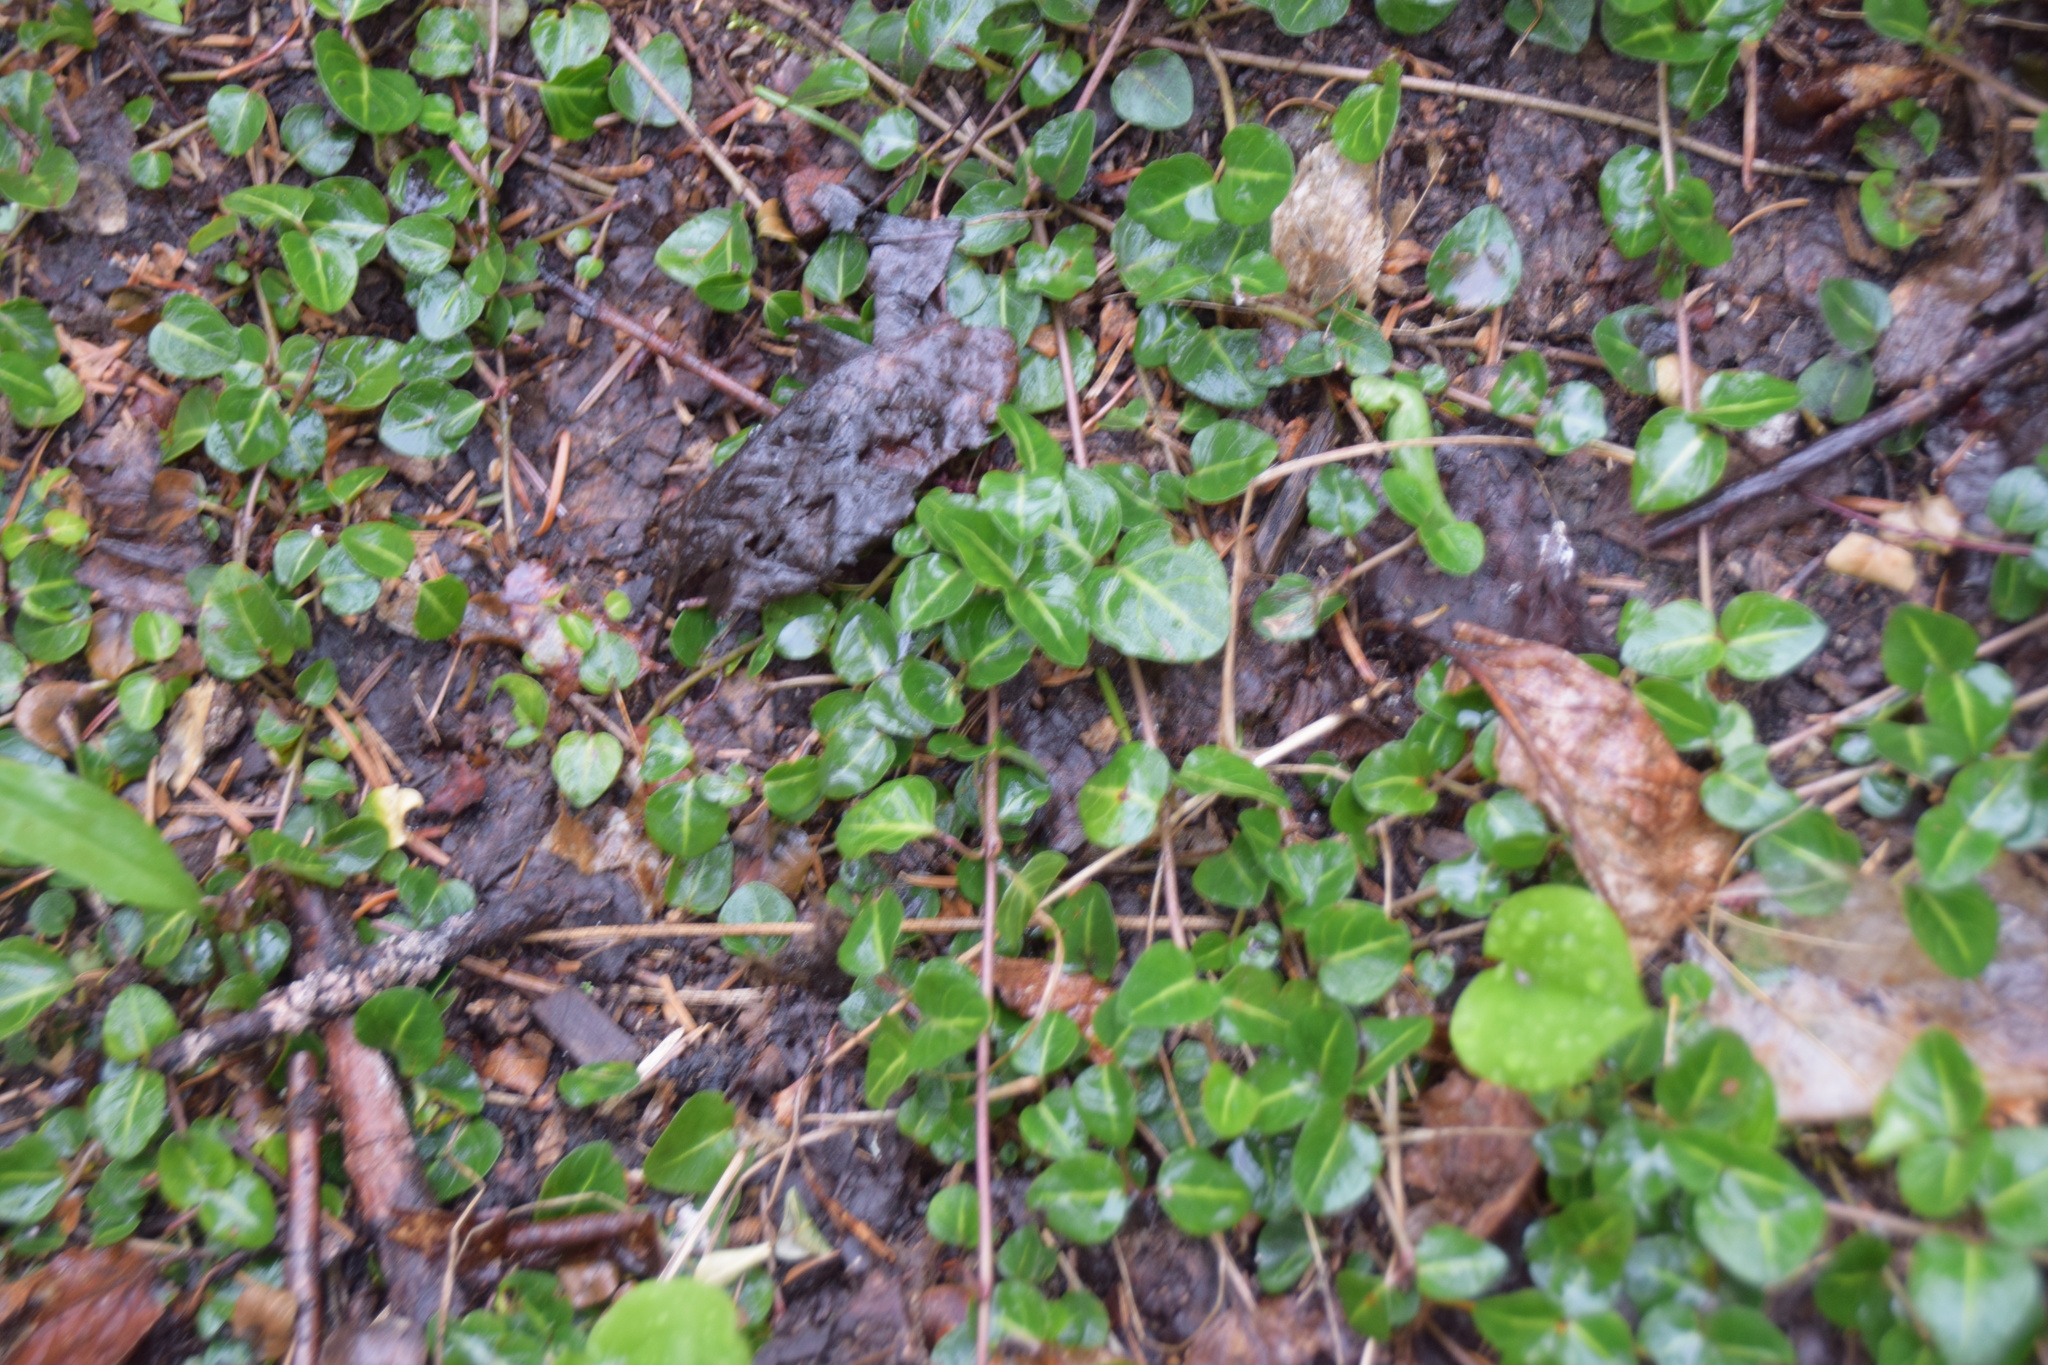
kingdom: Plantae
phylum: Tracheophyta
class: Magnoliopsida
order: Gentianales
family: Rubiaceae
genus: Mitchella
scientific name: Mitchella repens
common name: Partridge-berry
